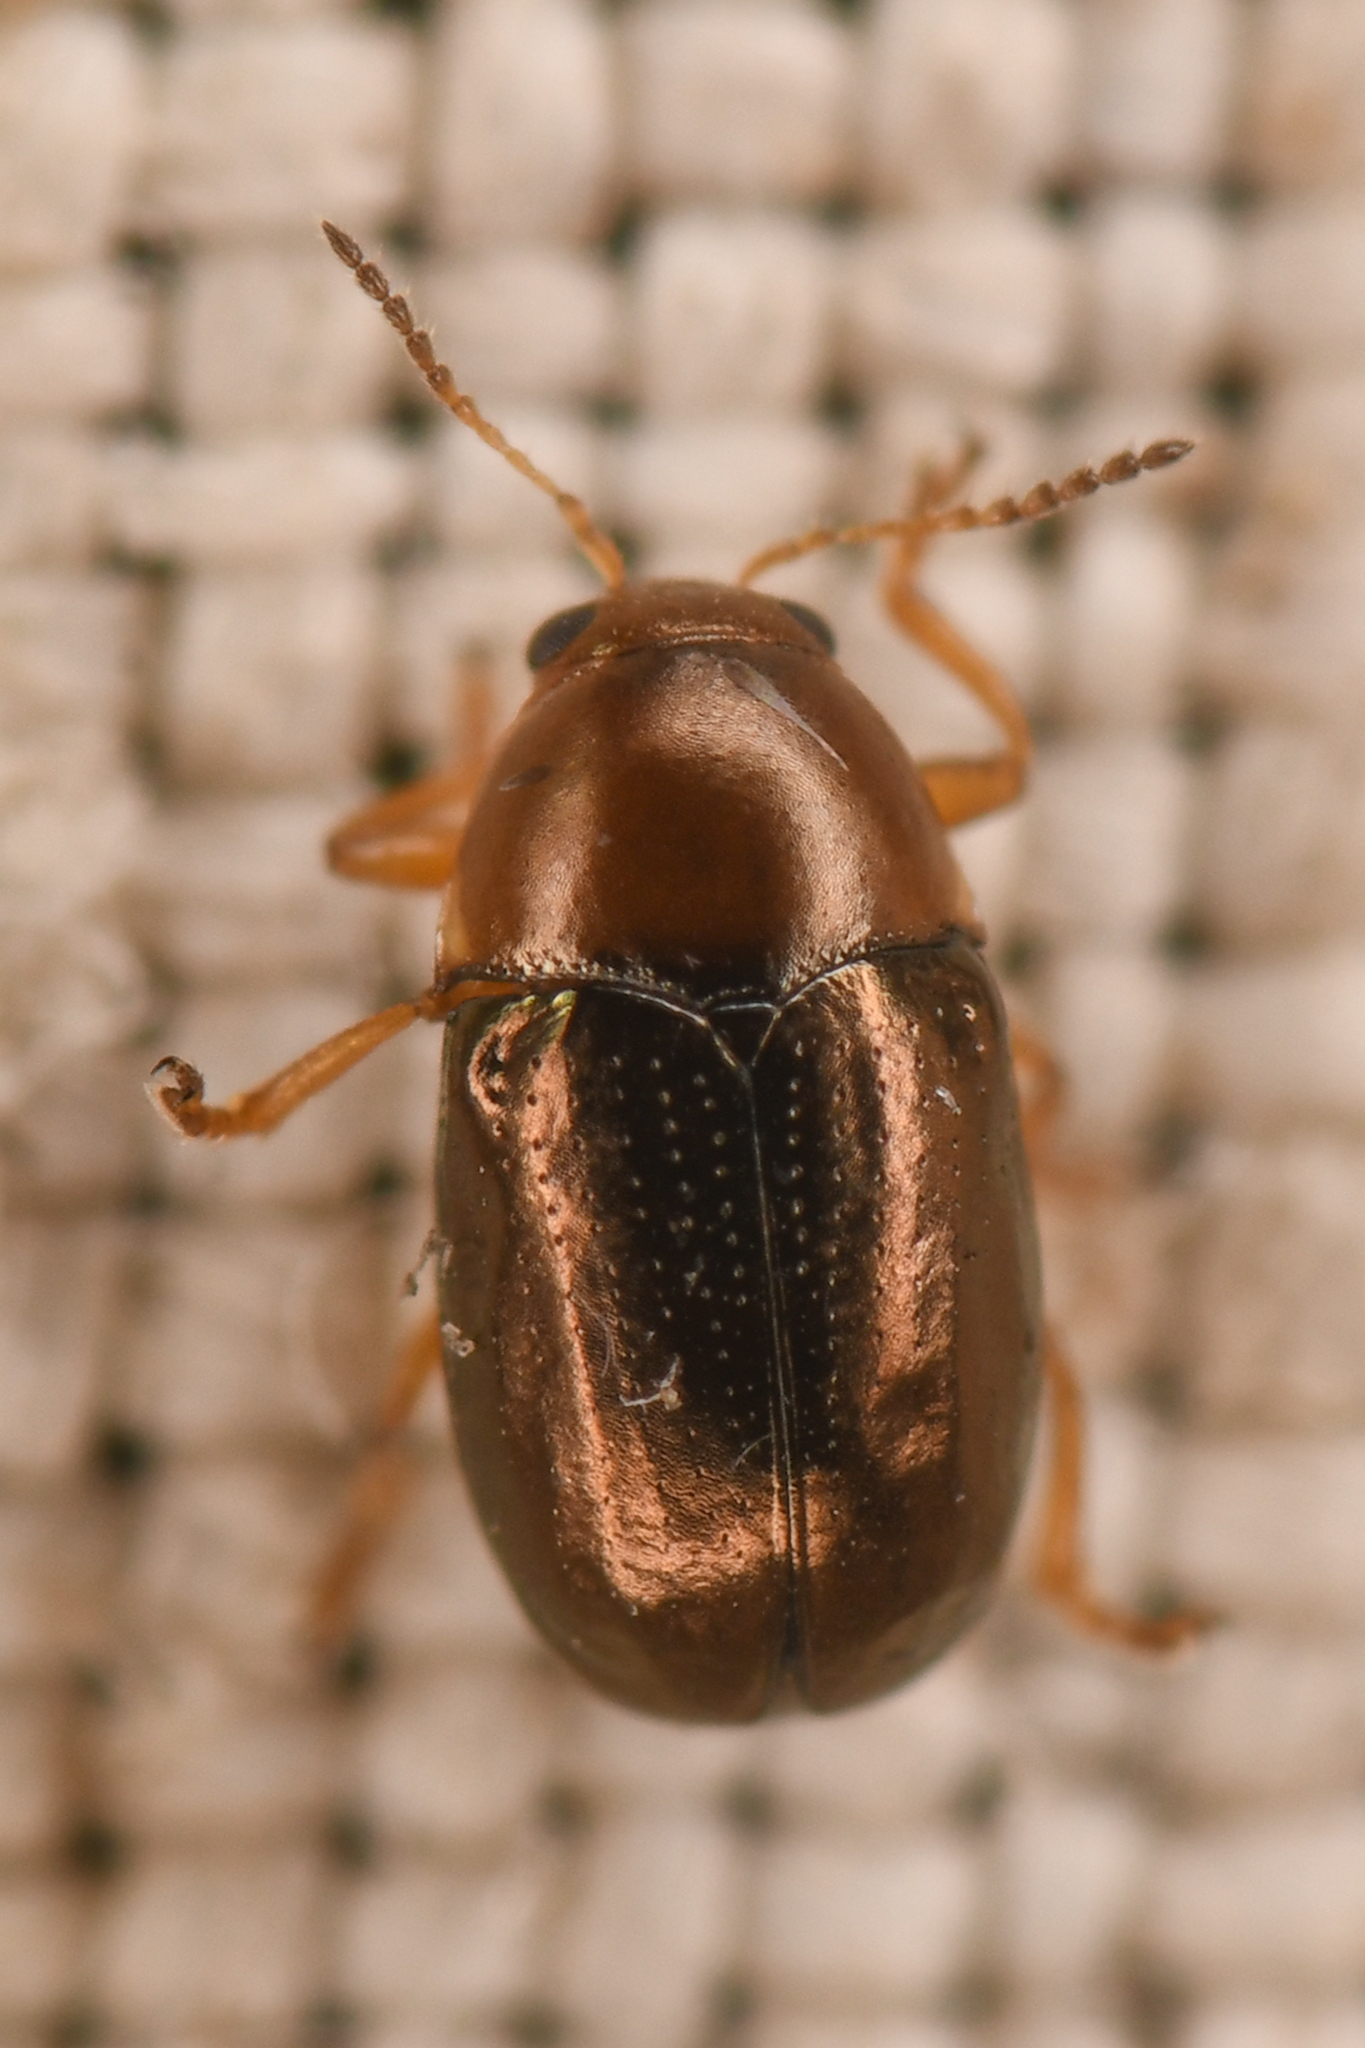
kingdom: Animalia
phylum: Arthropoda
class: Insecta
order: Coleoptera
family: Chrysomelidae
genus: Diachus
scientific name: Diachus auratus
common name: Bronze leaf beetle
